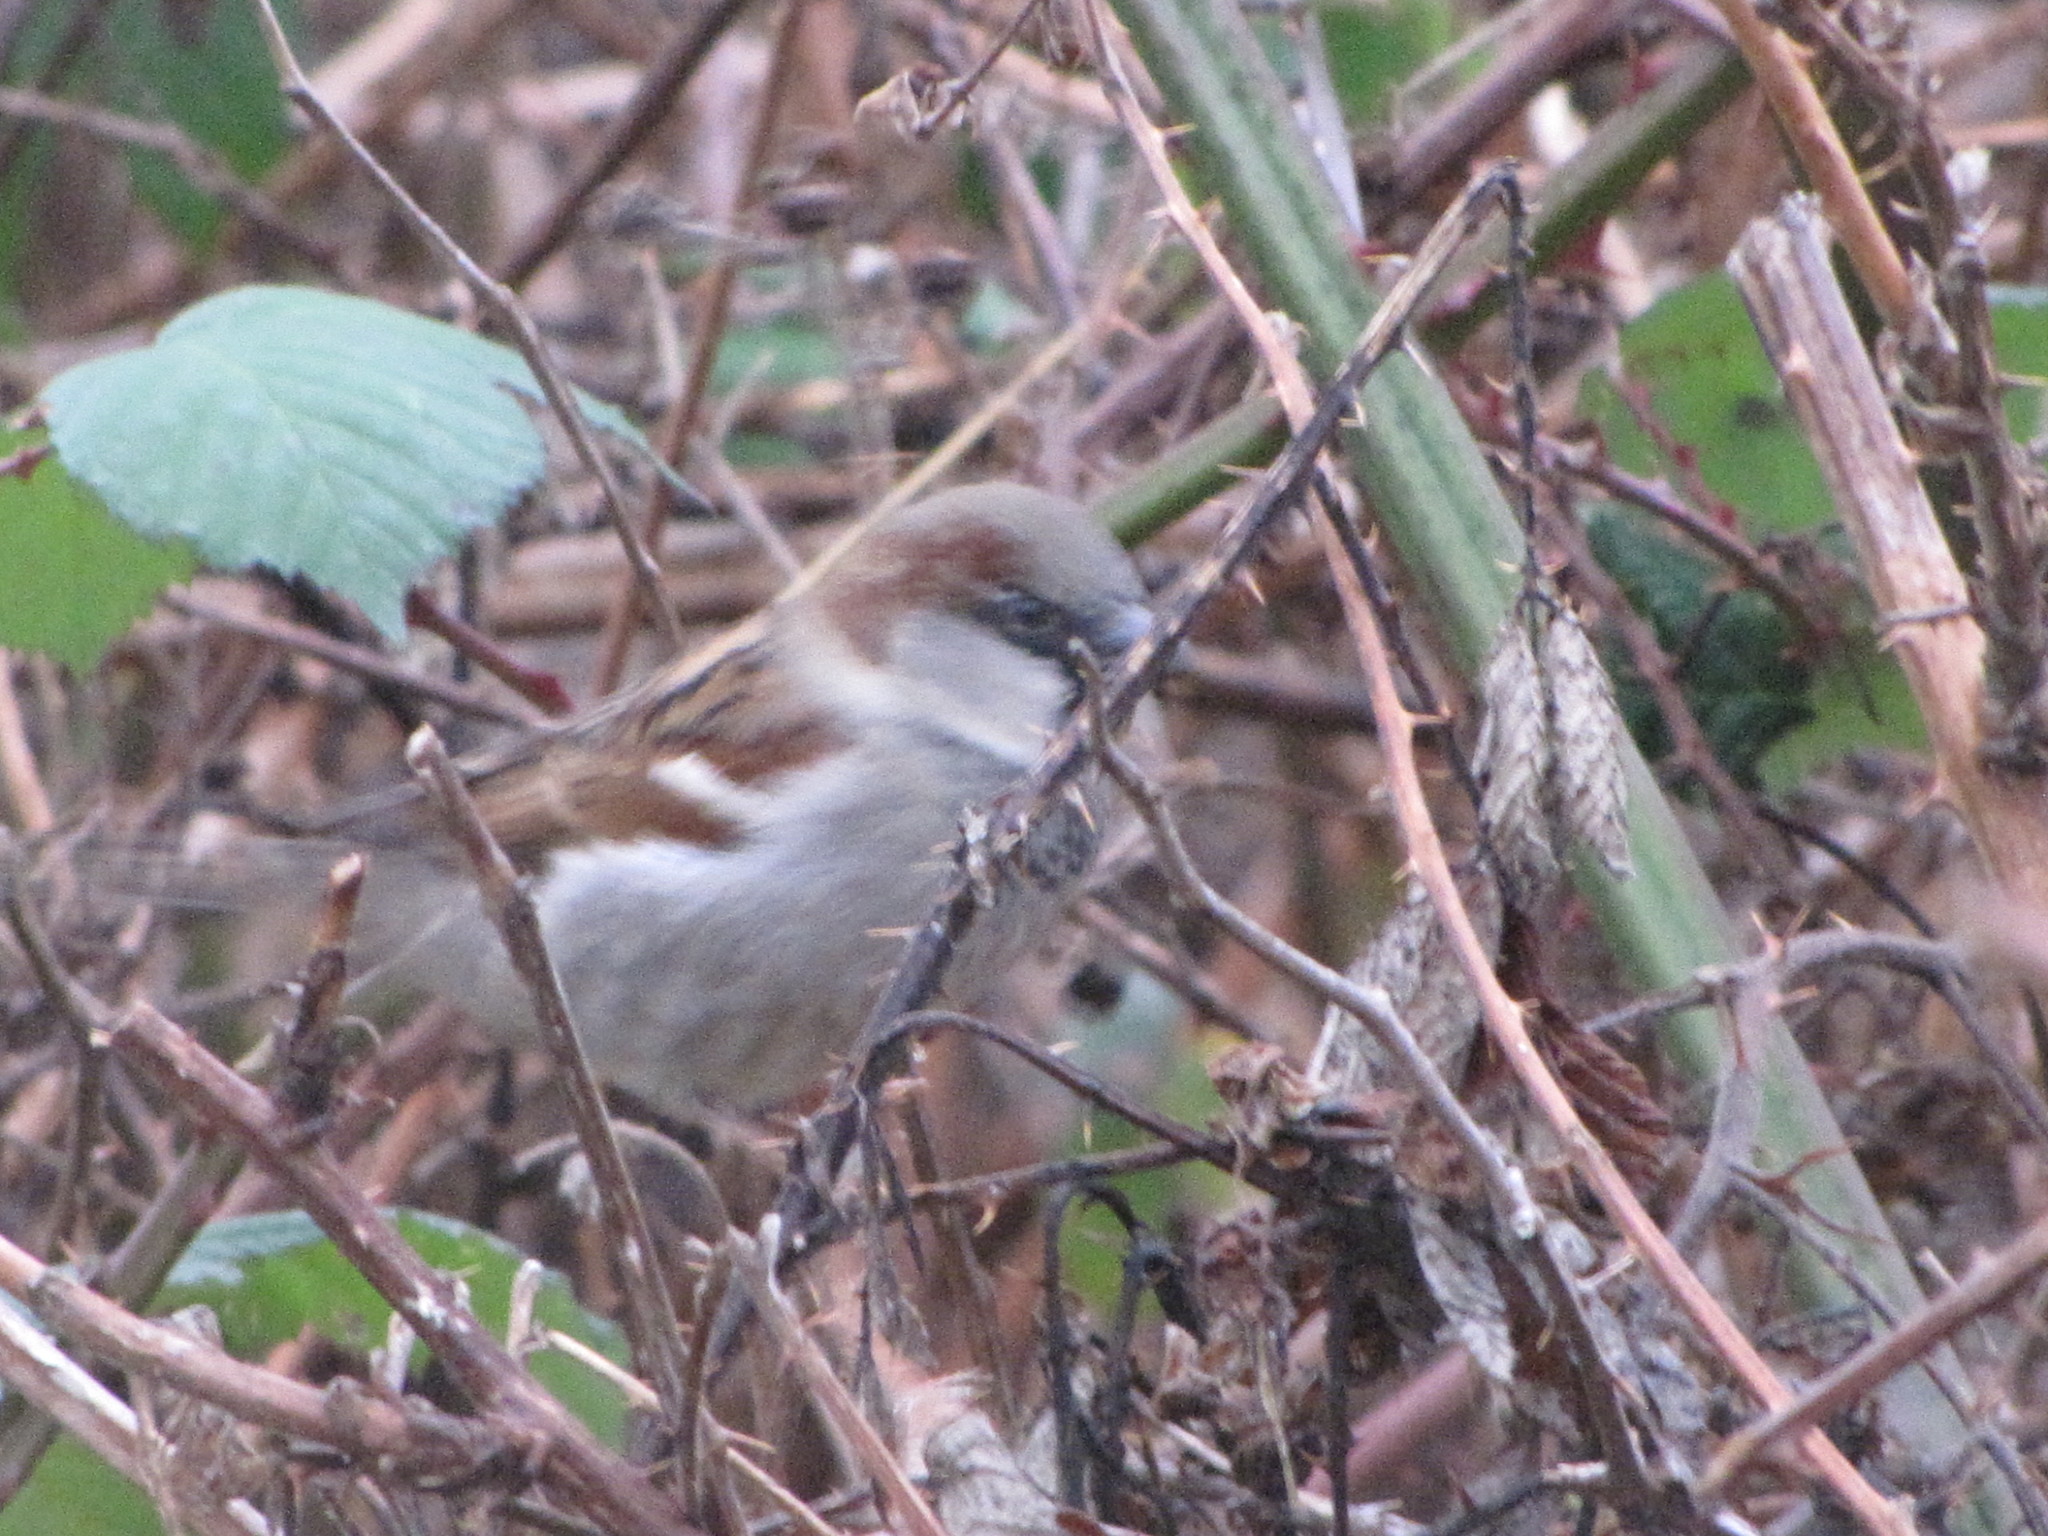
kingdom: Animalia
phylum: Chordata
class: Aves
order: Passeriformes
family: Passeridae
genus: Passer
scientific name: Passer domesticus
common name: House sparrow
